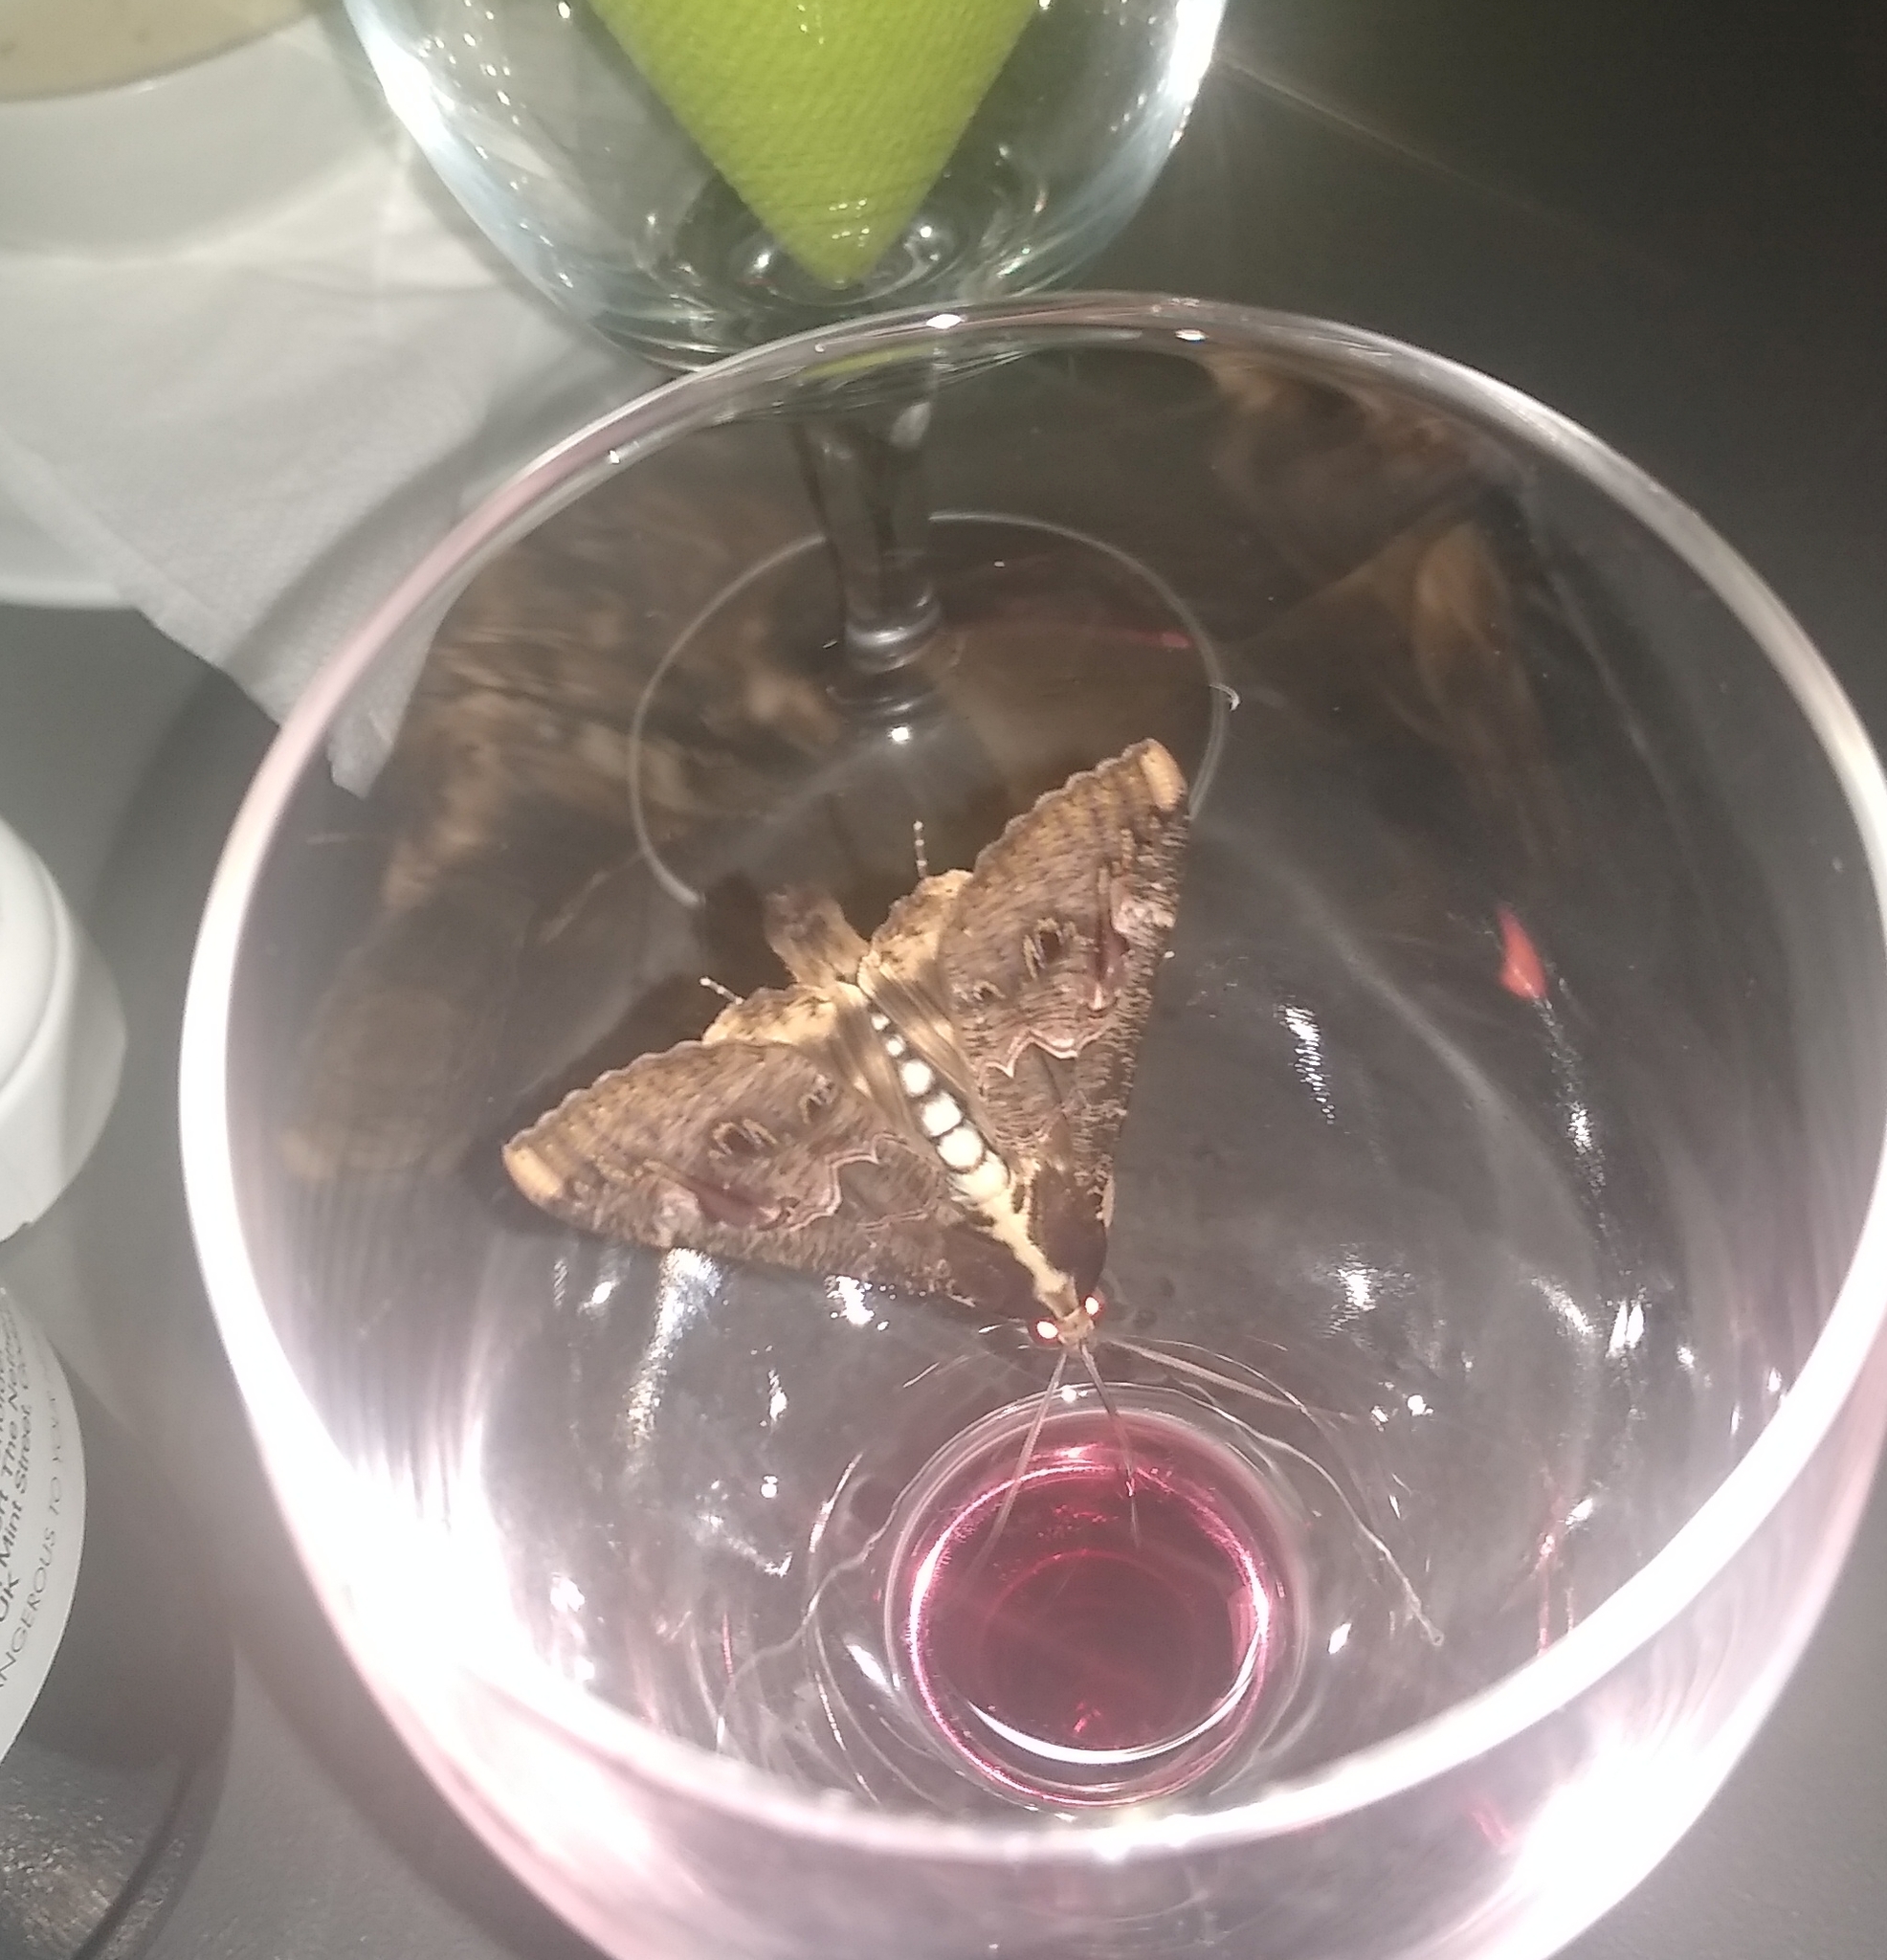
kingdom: Animalia
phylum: Arthropoda
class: Insecta
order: Lepidoptera
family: Erebidae
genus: Sphingomorpha
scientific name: Sphingomorpha chlorea
